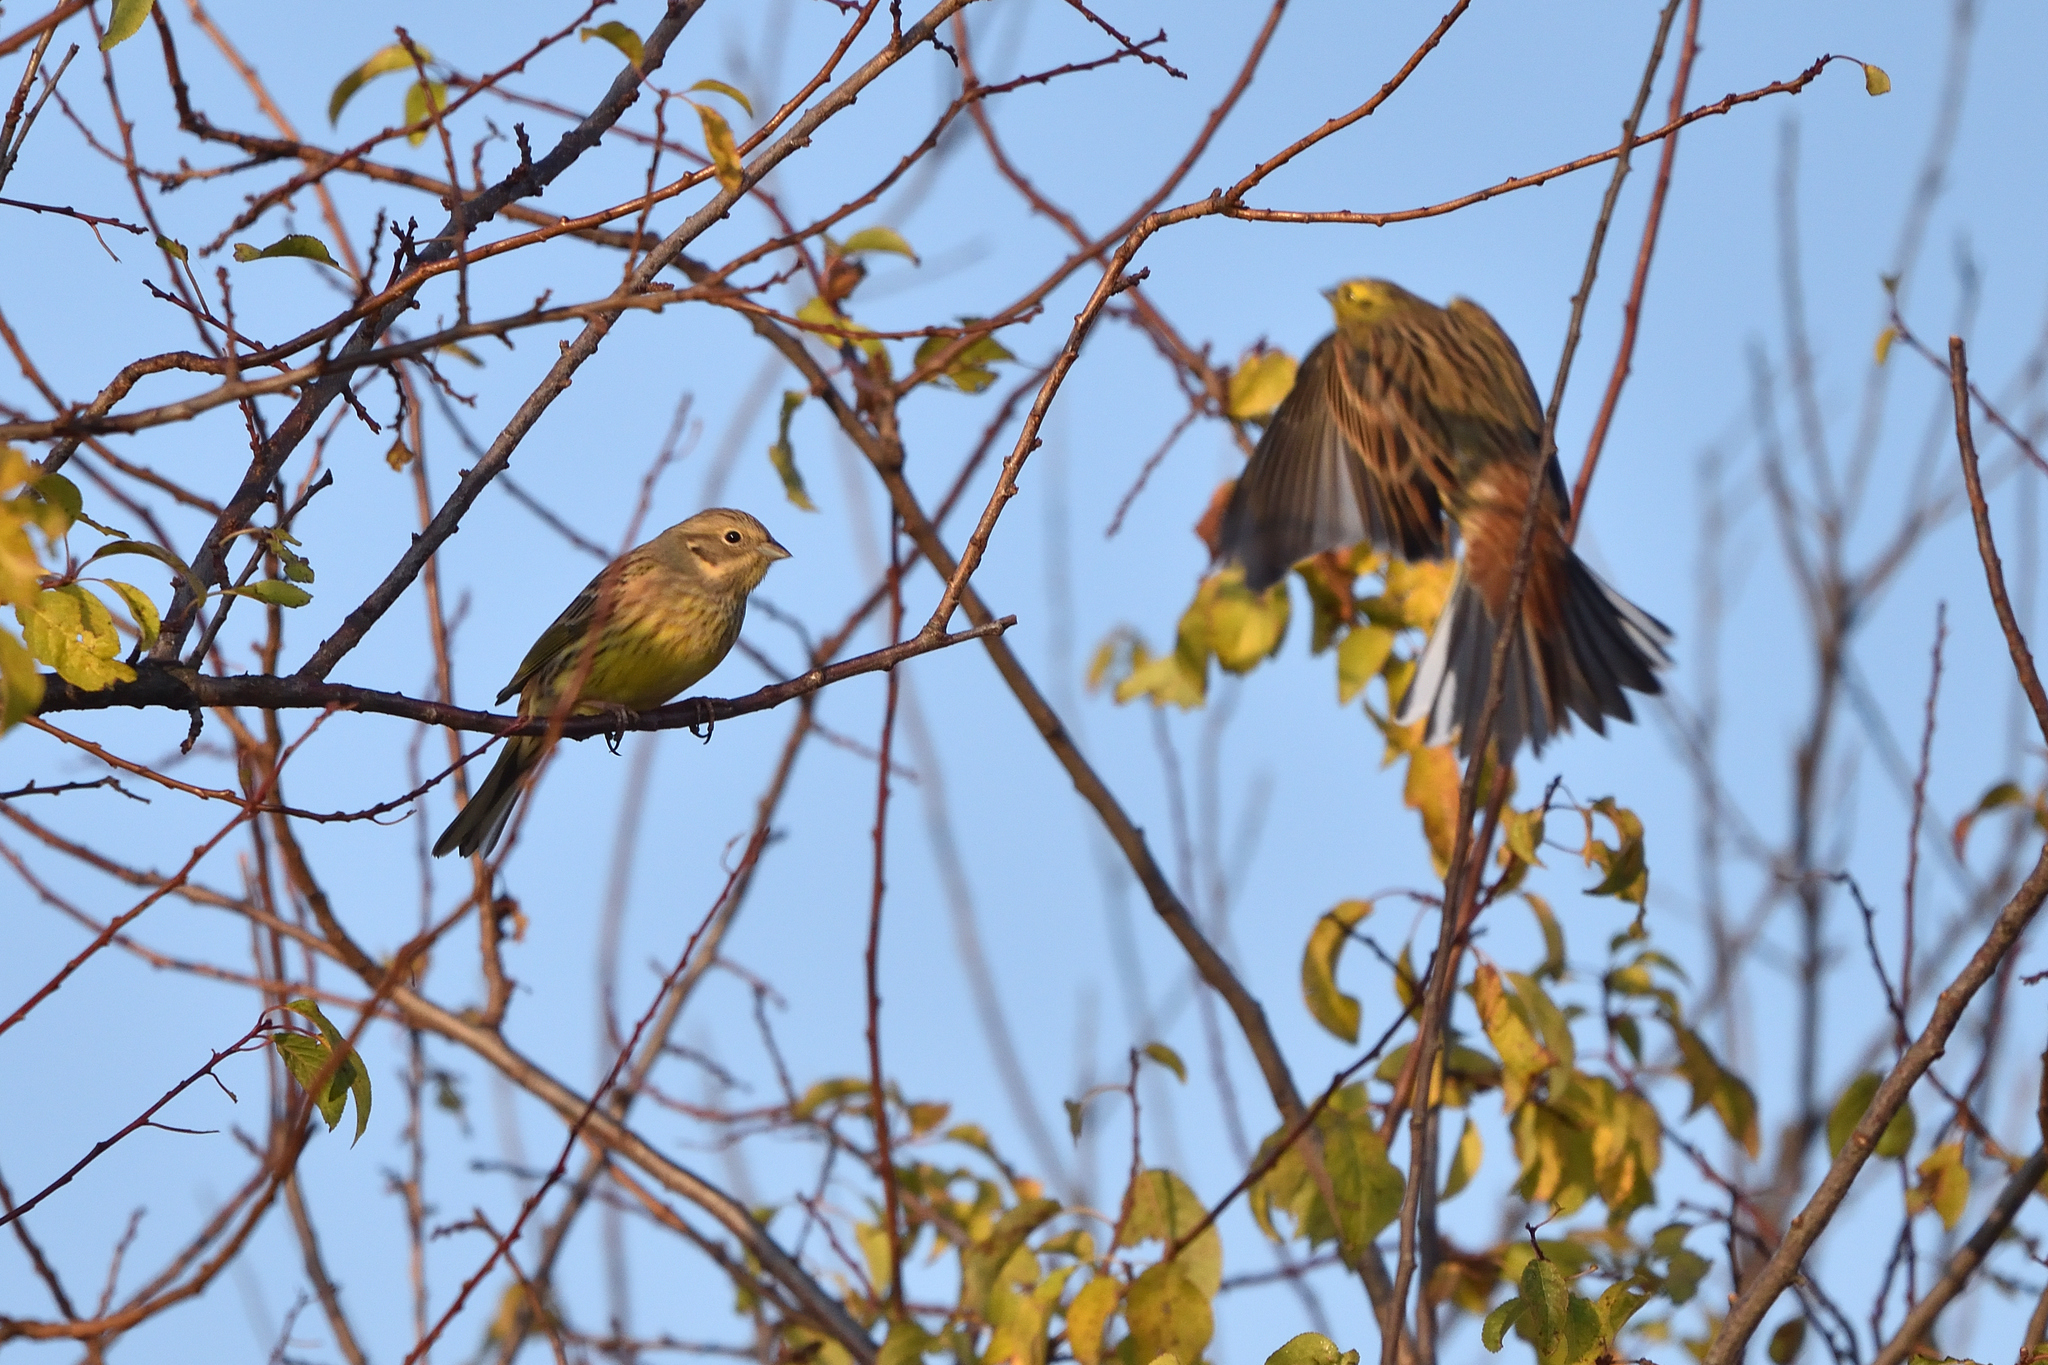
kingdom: Animalia
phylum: Chordata
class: Aves
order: Passeriformes
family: Emberizidae
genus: Emberiza
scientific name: Emberiza citrinella
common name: Yellowhammer
